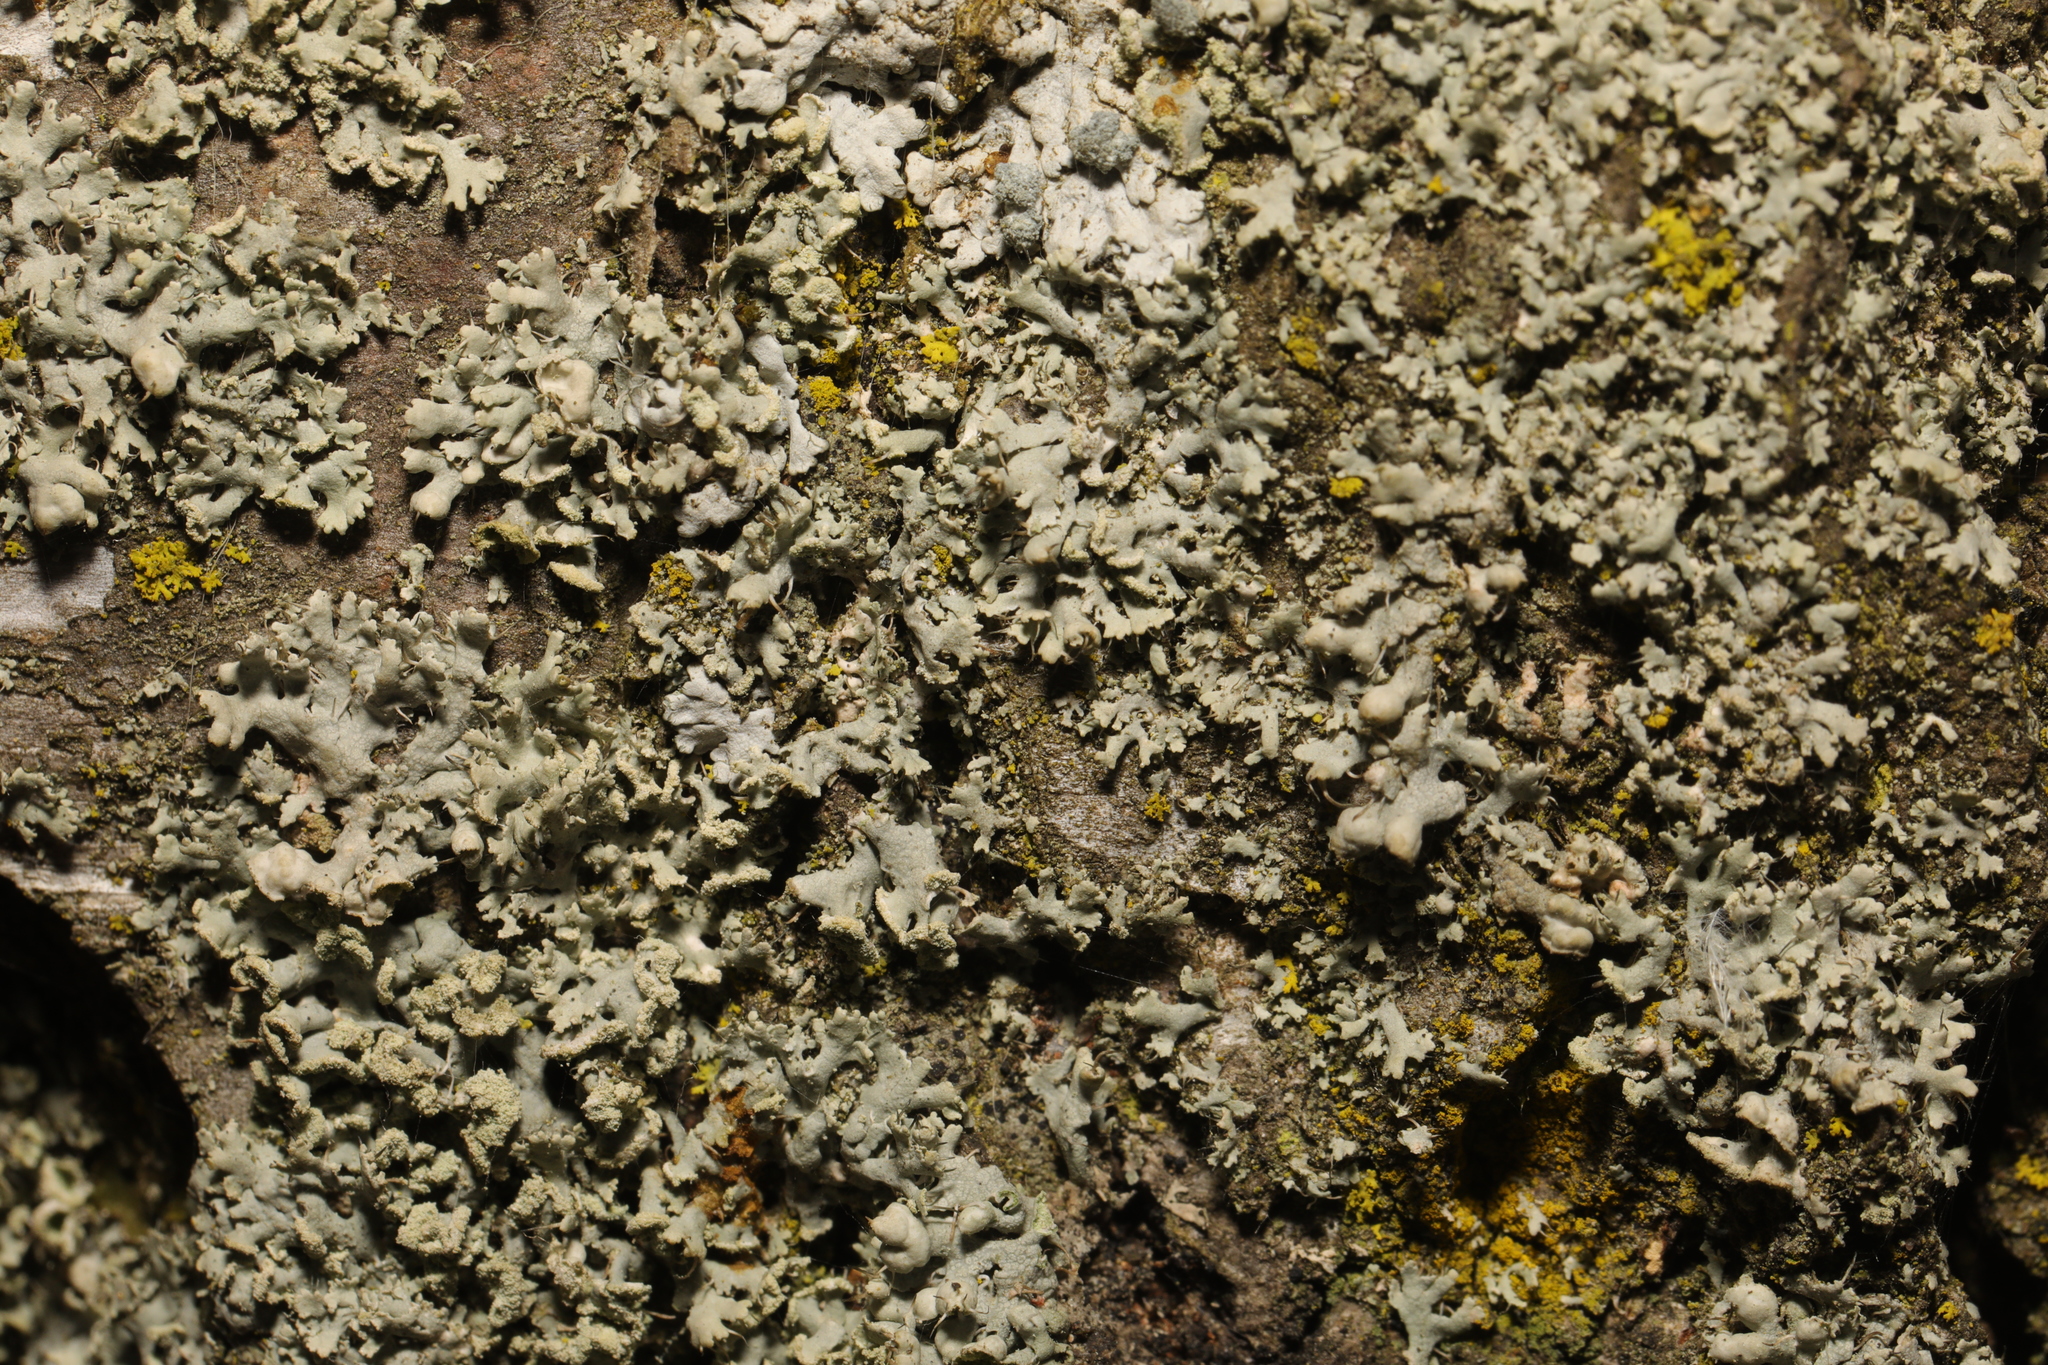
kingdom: Fungi
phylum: Ascomycota
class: Lecanoromycetes
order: Caliciales
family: Physciaceae
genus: Physcia
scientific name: Physcia tenella
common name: Fringed rosette lichen
